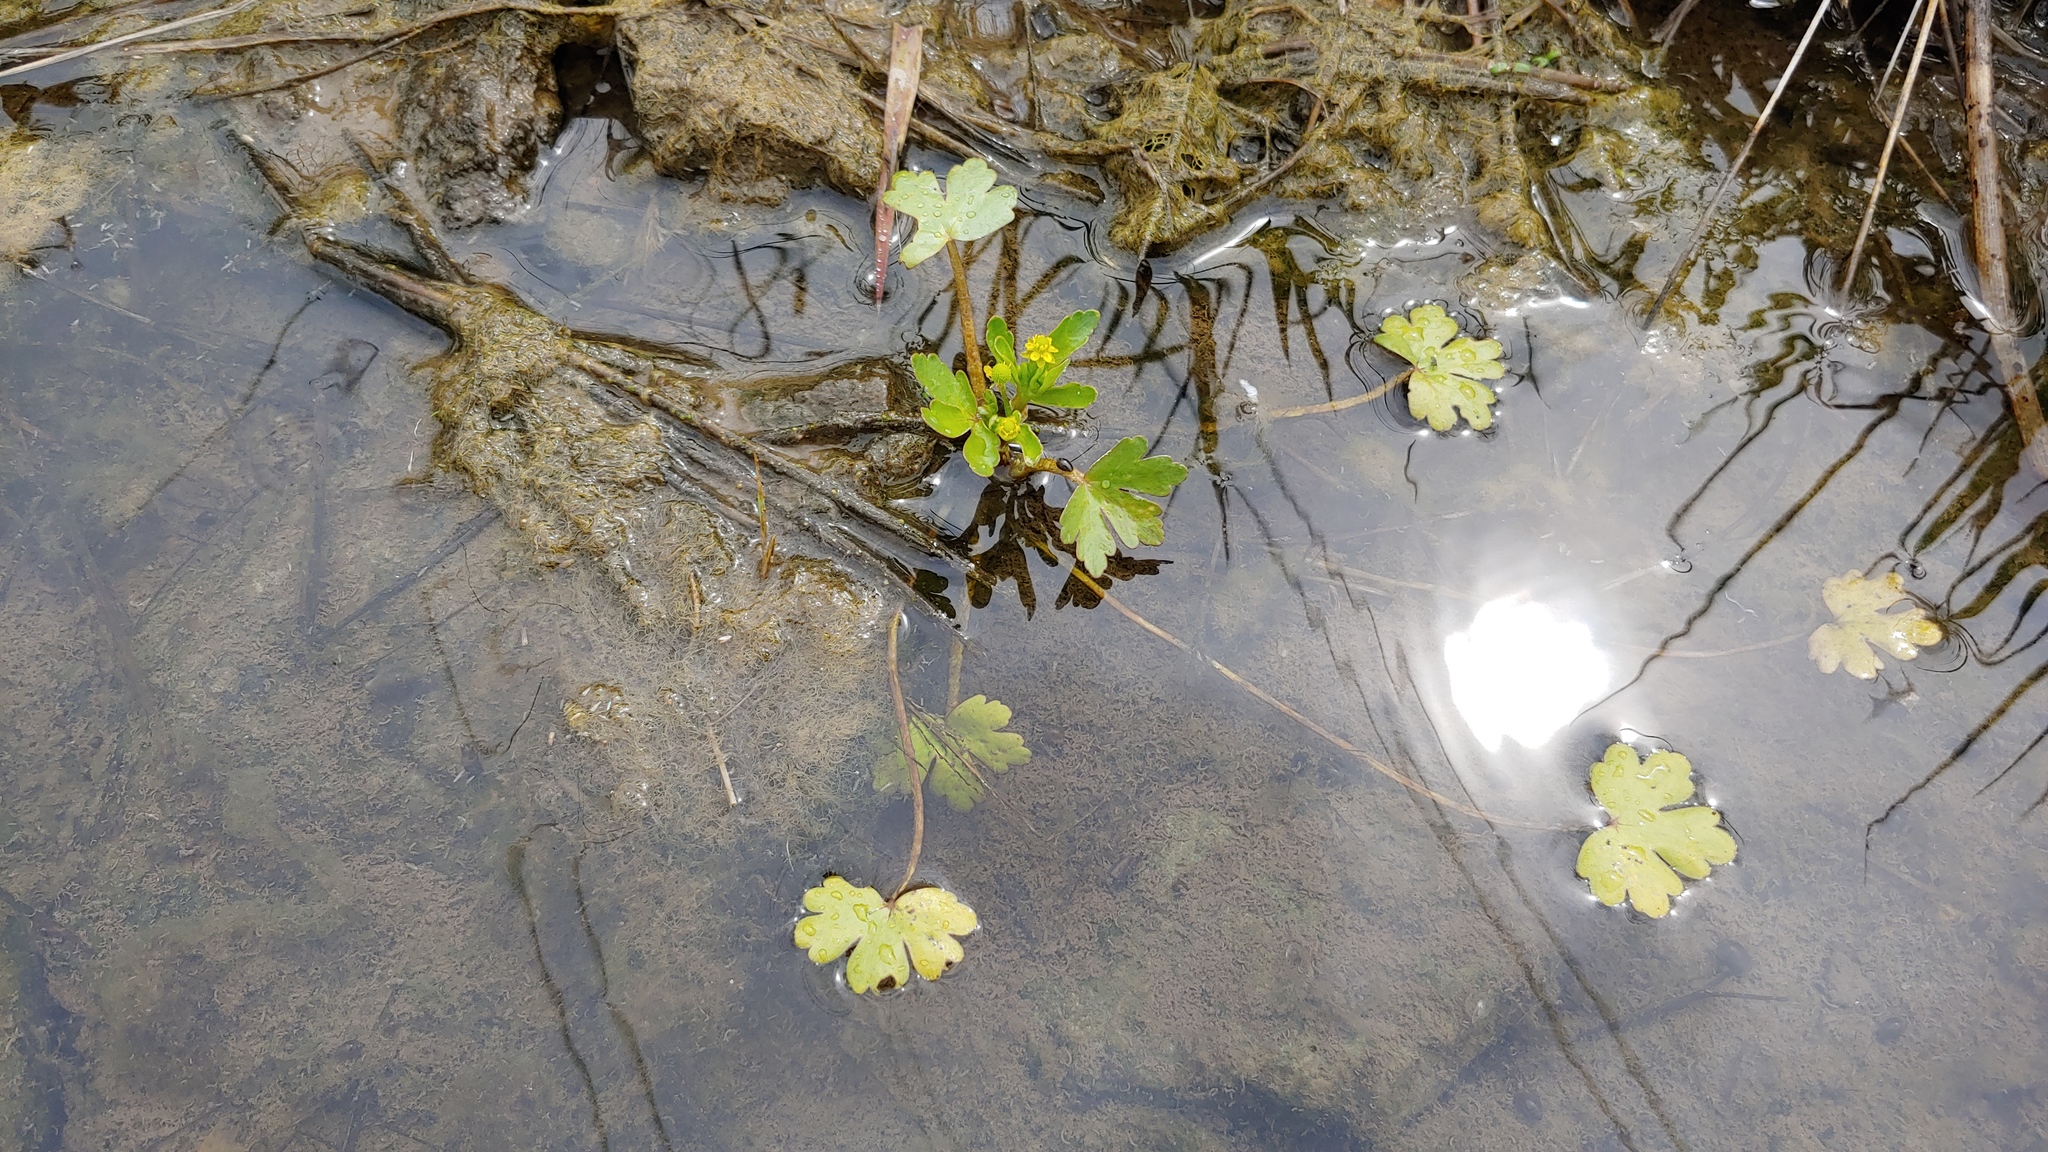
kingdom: Plantae
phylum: Tracheophyta
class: Magnoliopsida
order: Ranunculales
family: Ranunculaceae
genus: Ranunculus
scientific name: Ranunculus sceleratus
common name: Celery-leaved buttercup
